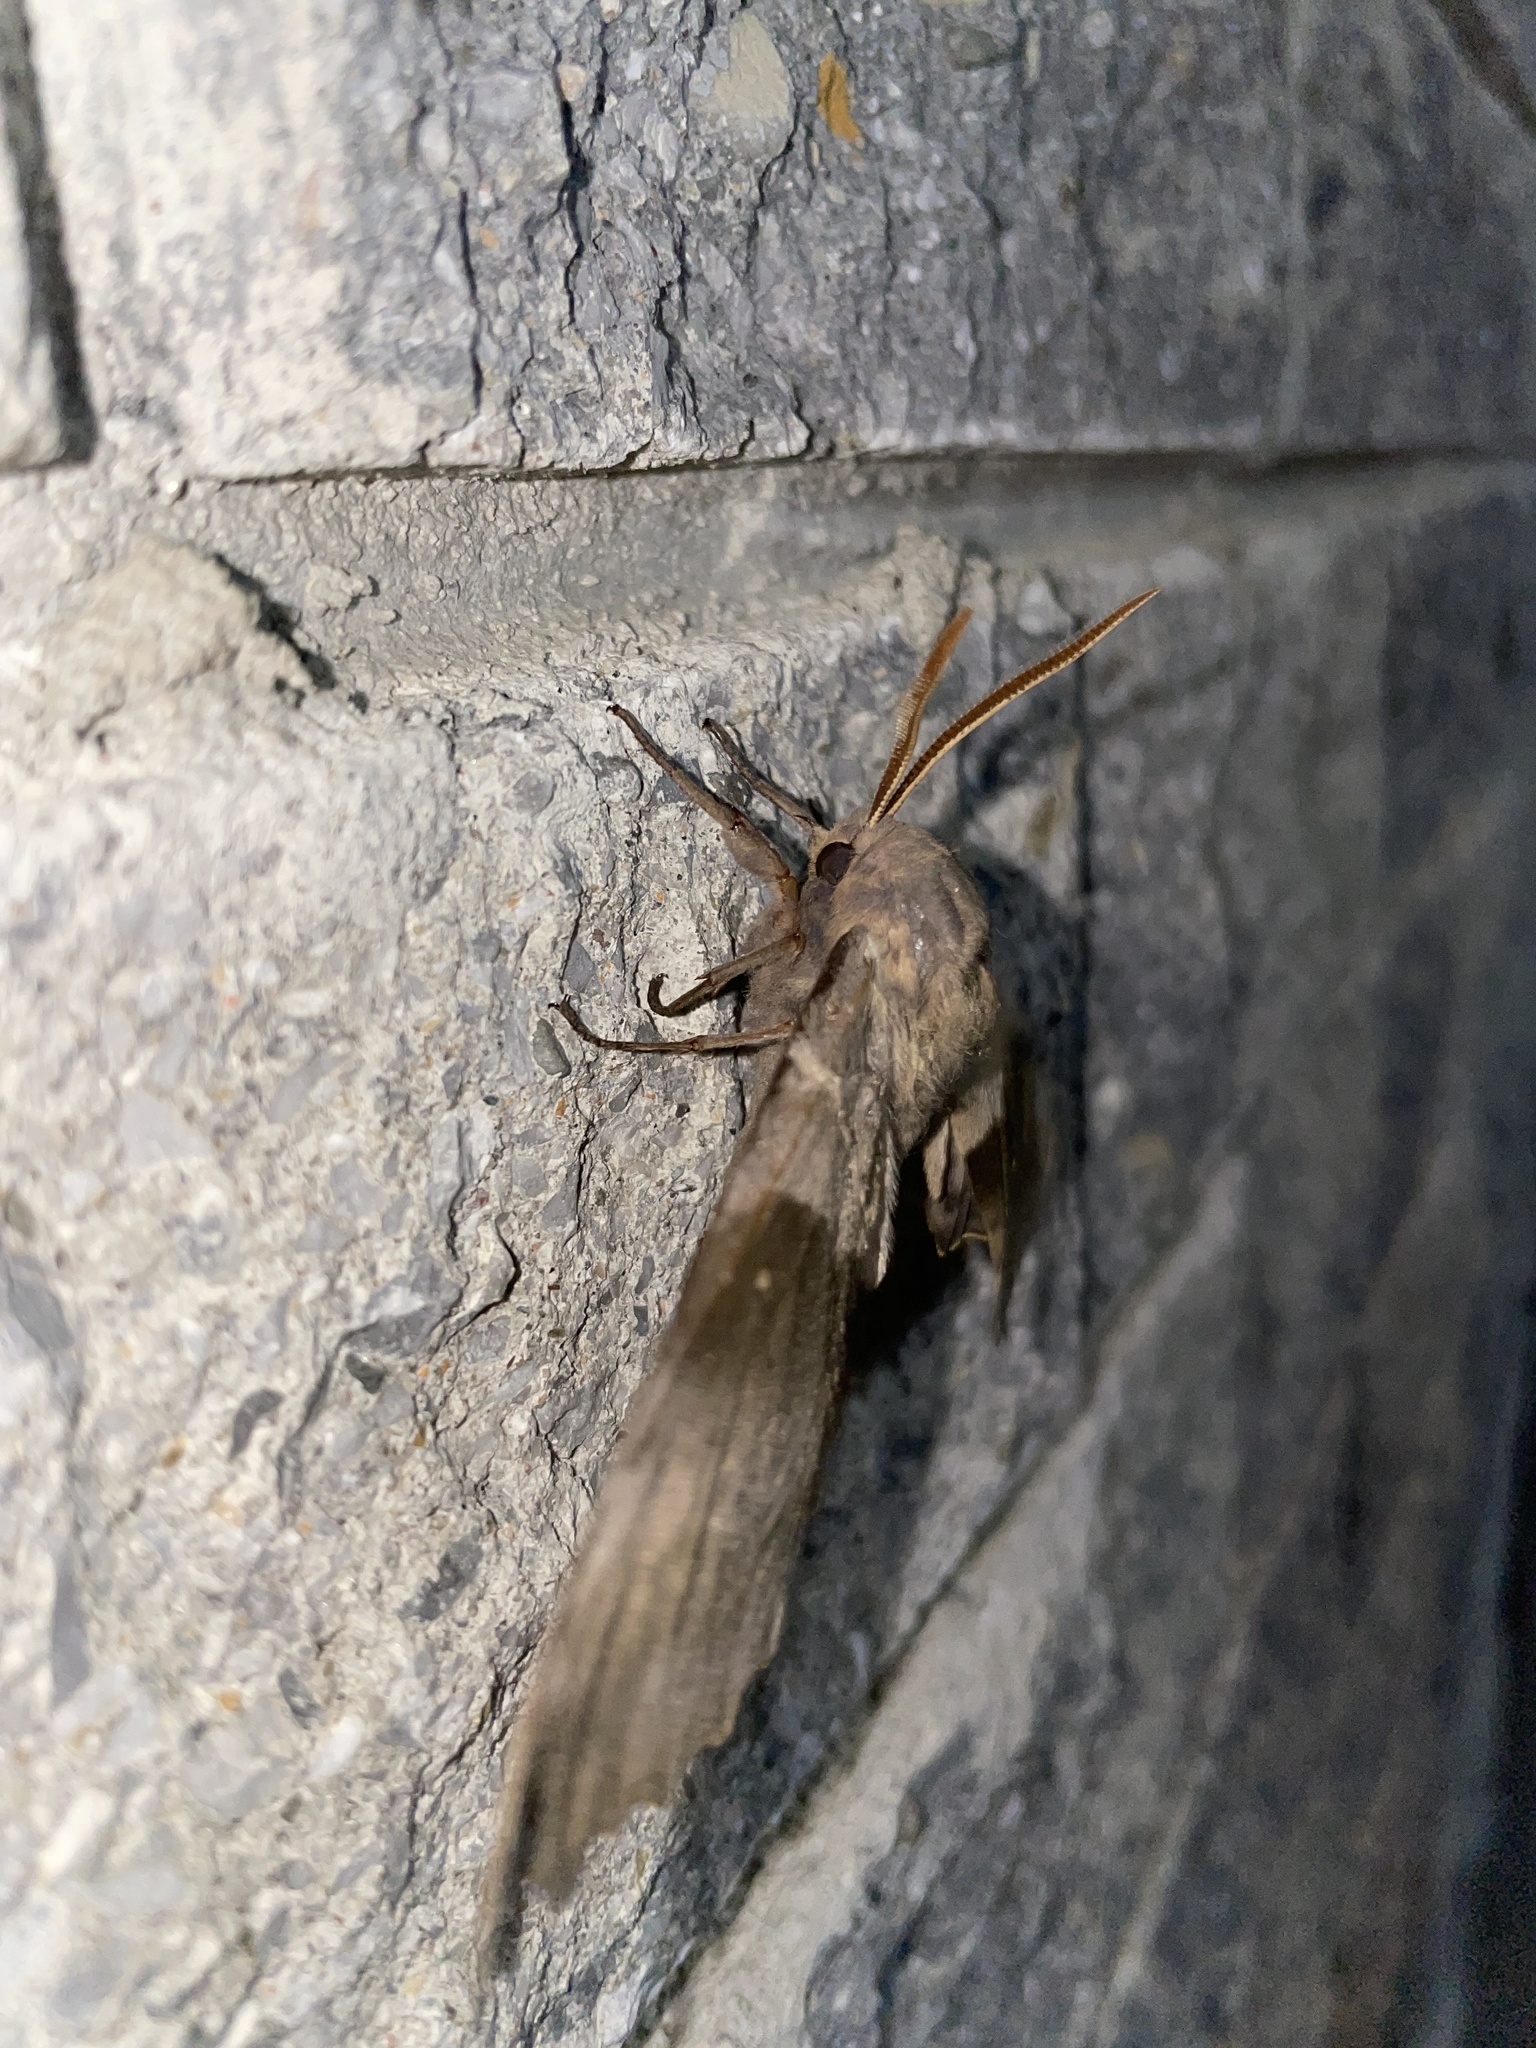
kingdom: Animalia
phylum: Arthropoda
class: Insecta
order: Lepidoptera
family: Sphingidae
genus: Pachysphinx
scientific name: Pachysphinx modesta
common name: Big poplar sphinx
